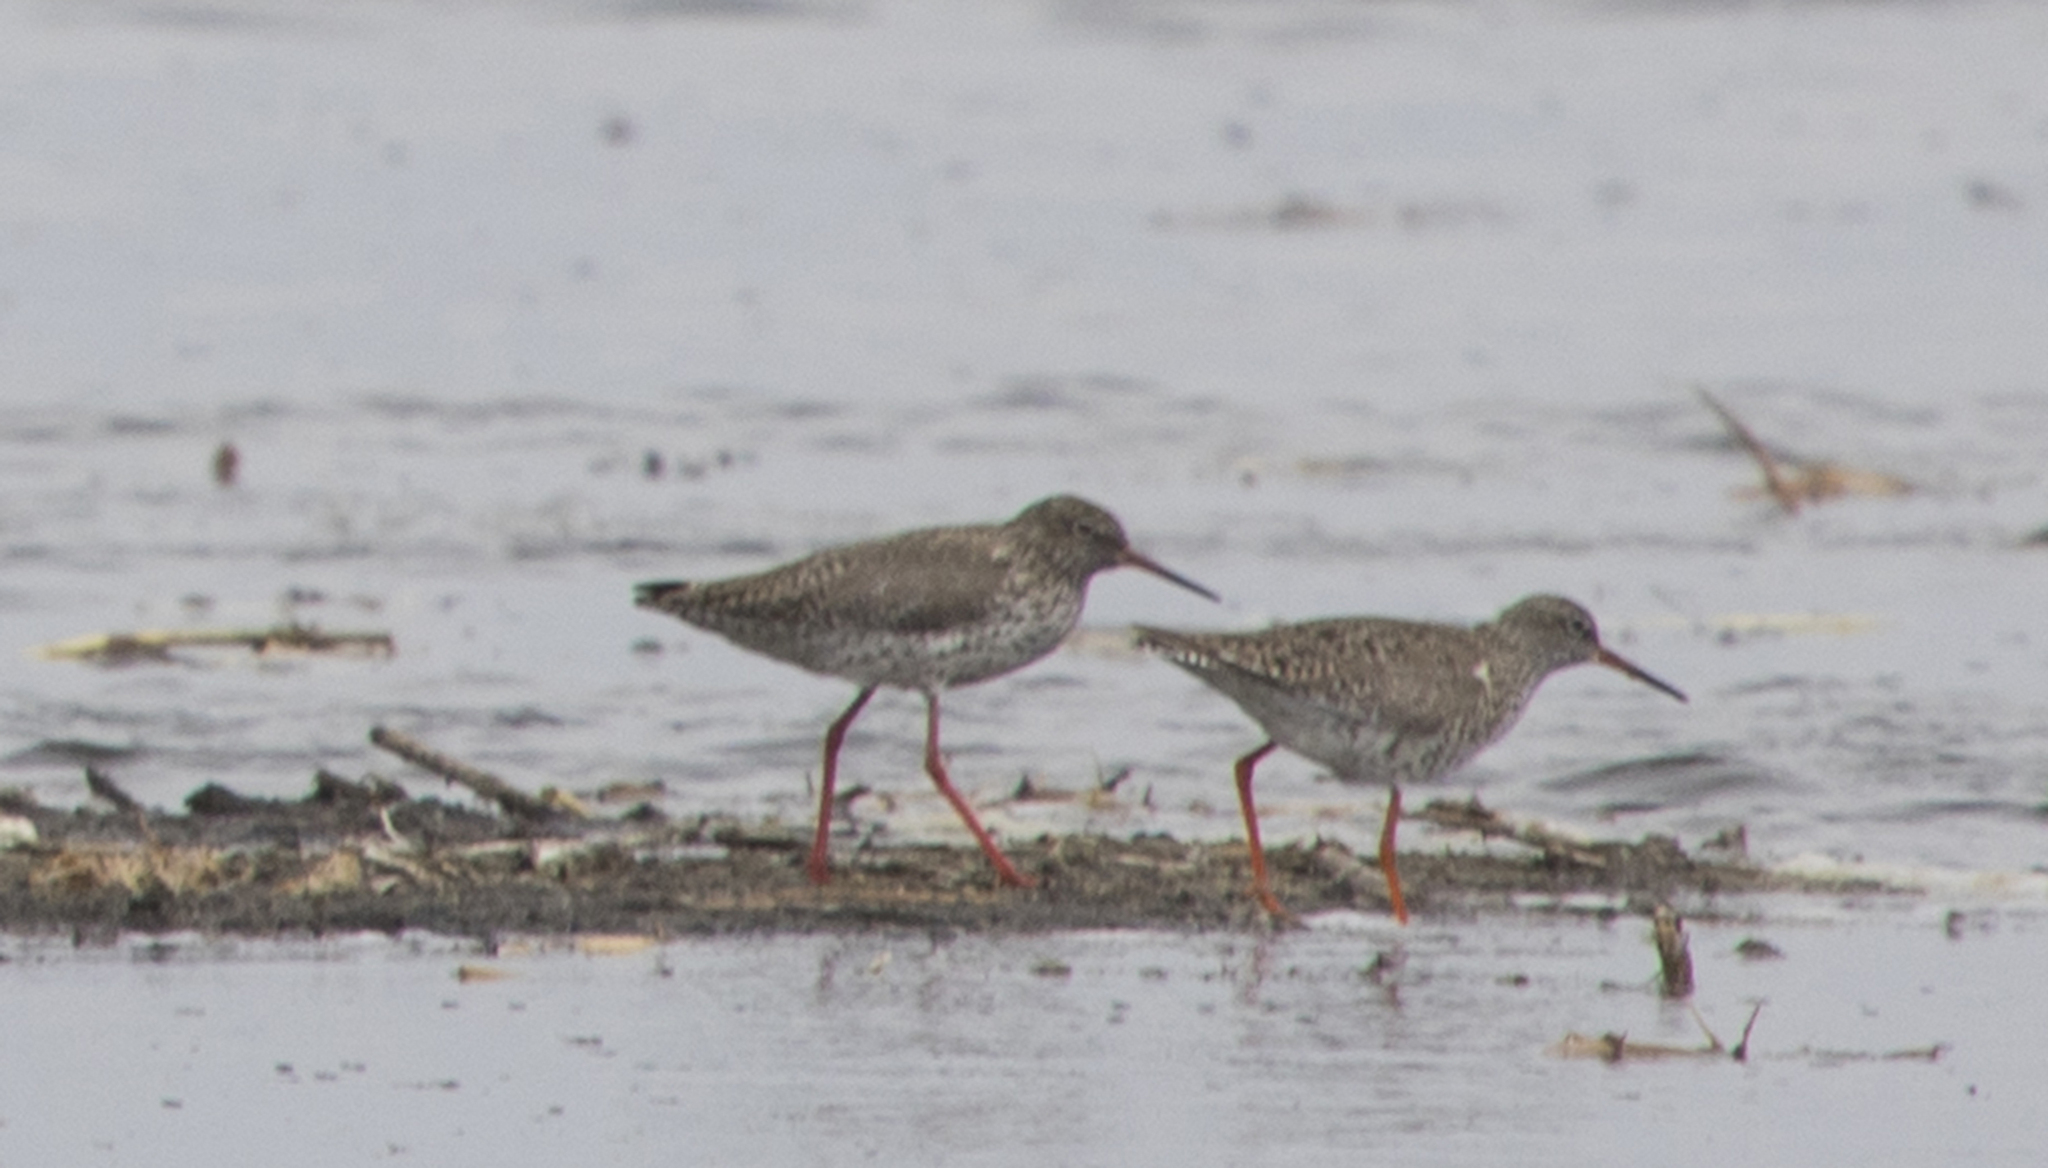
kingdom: Animalia
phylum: Chordata
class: Aves
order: Charadriiformes
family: Scolopacidae
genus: Tringa
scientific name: Tringa totanus
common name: Common redshank
